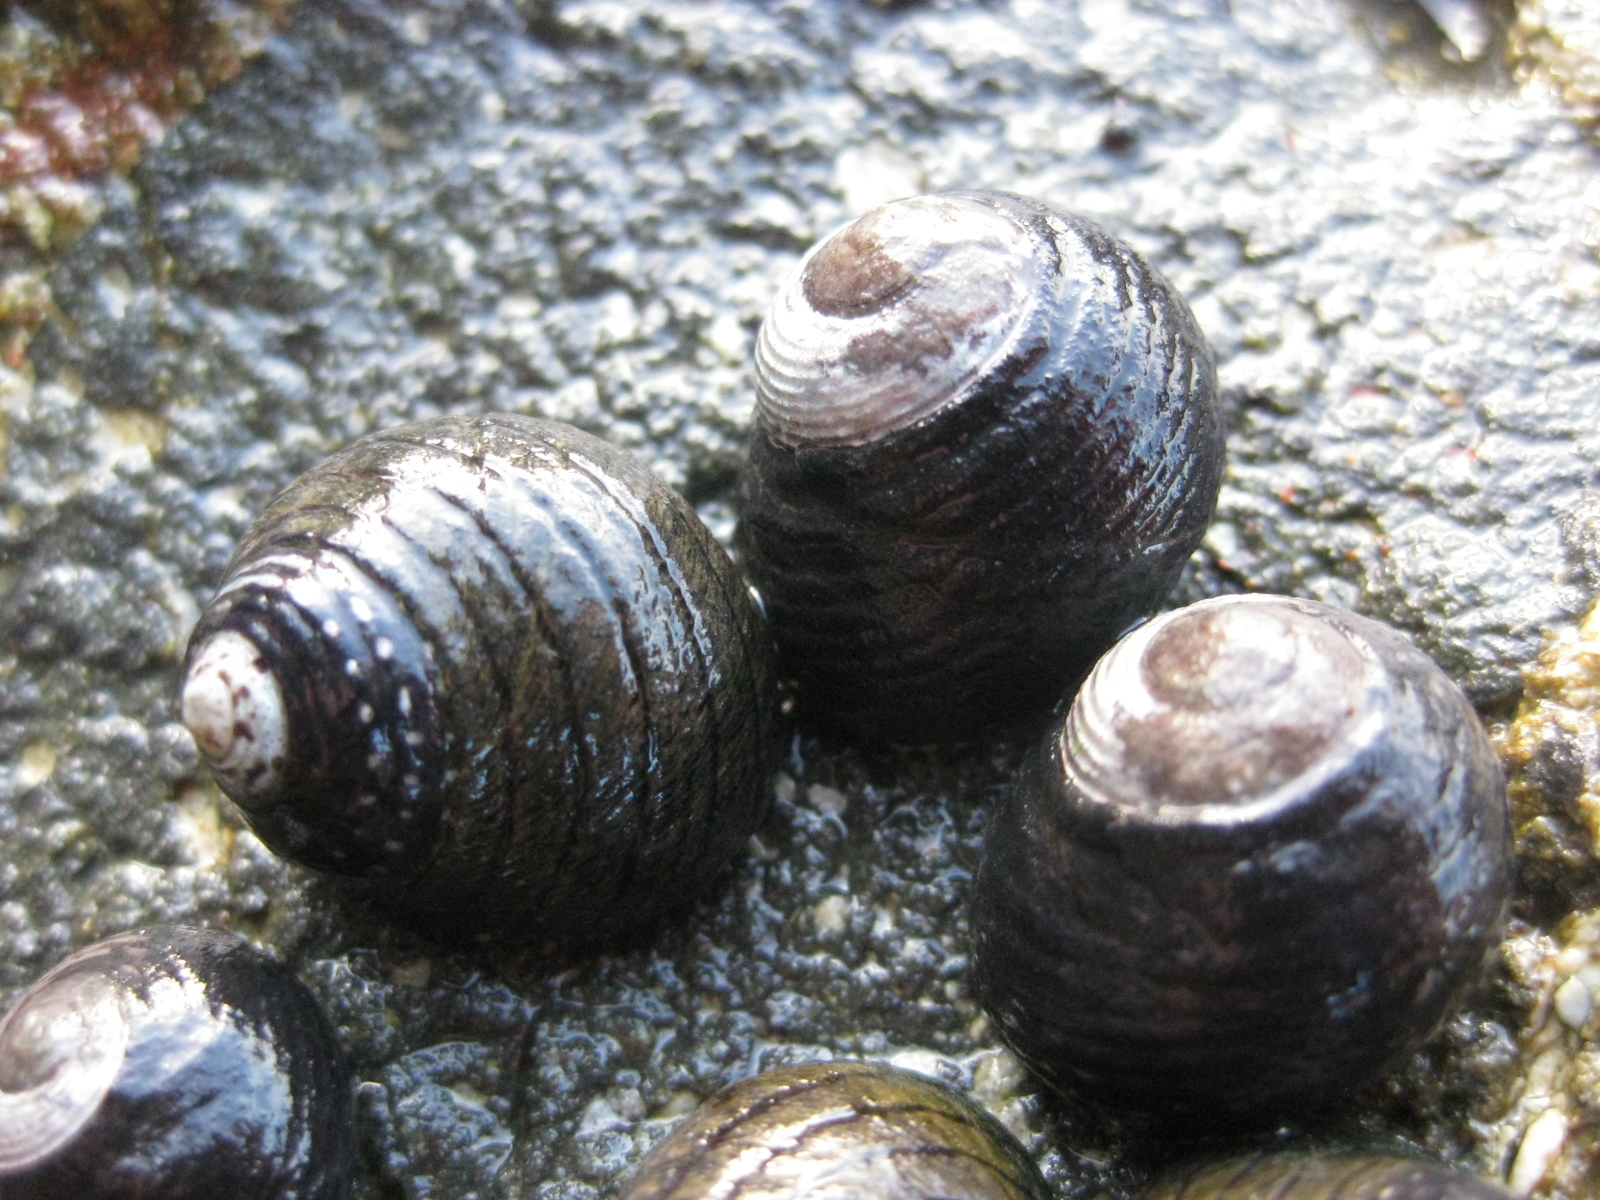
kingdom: Animalia
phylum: Mollusca
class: Gastropoda
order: Trochida
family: Trochidae
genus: Diloma
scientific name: Diloma aethiops
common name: Scorched monodont
